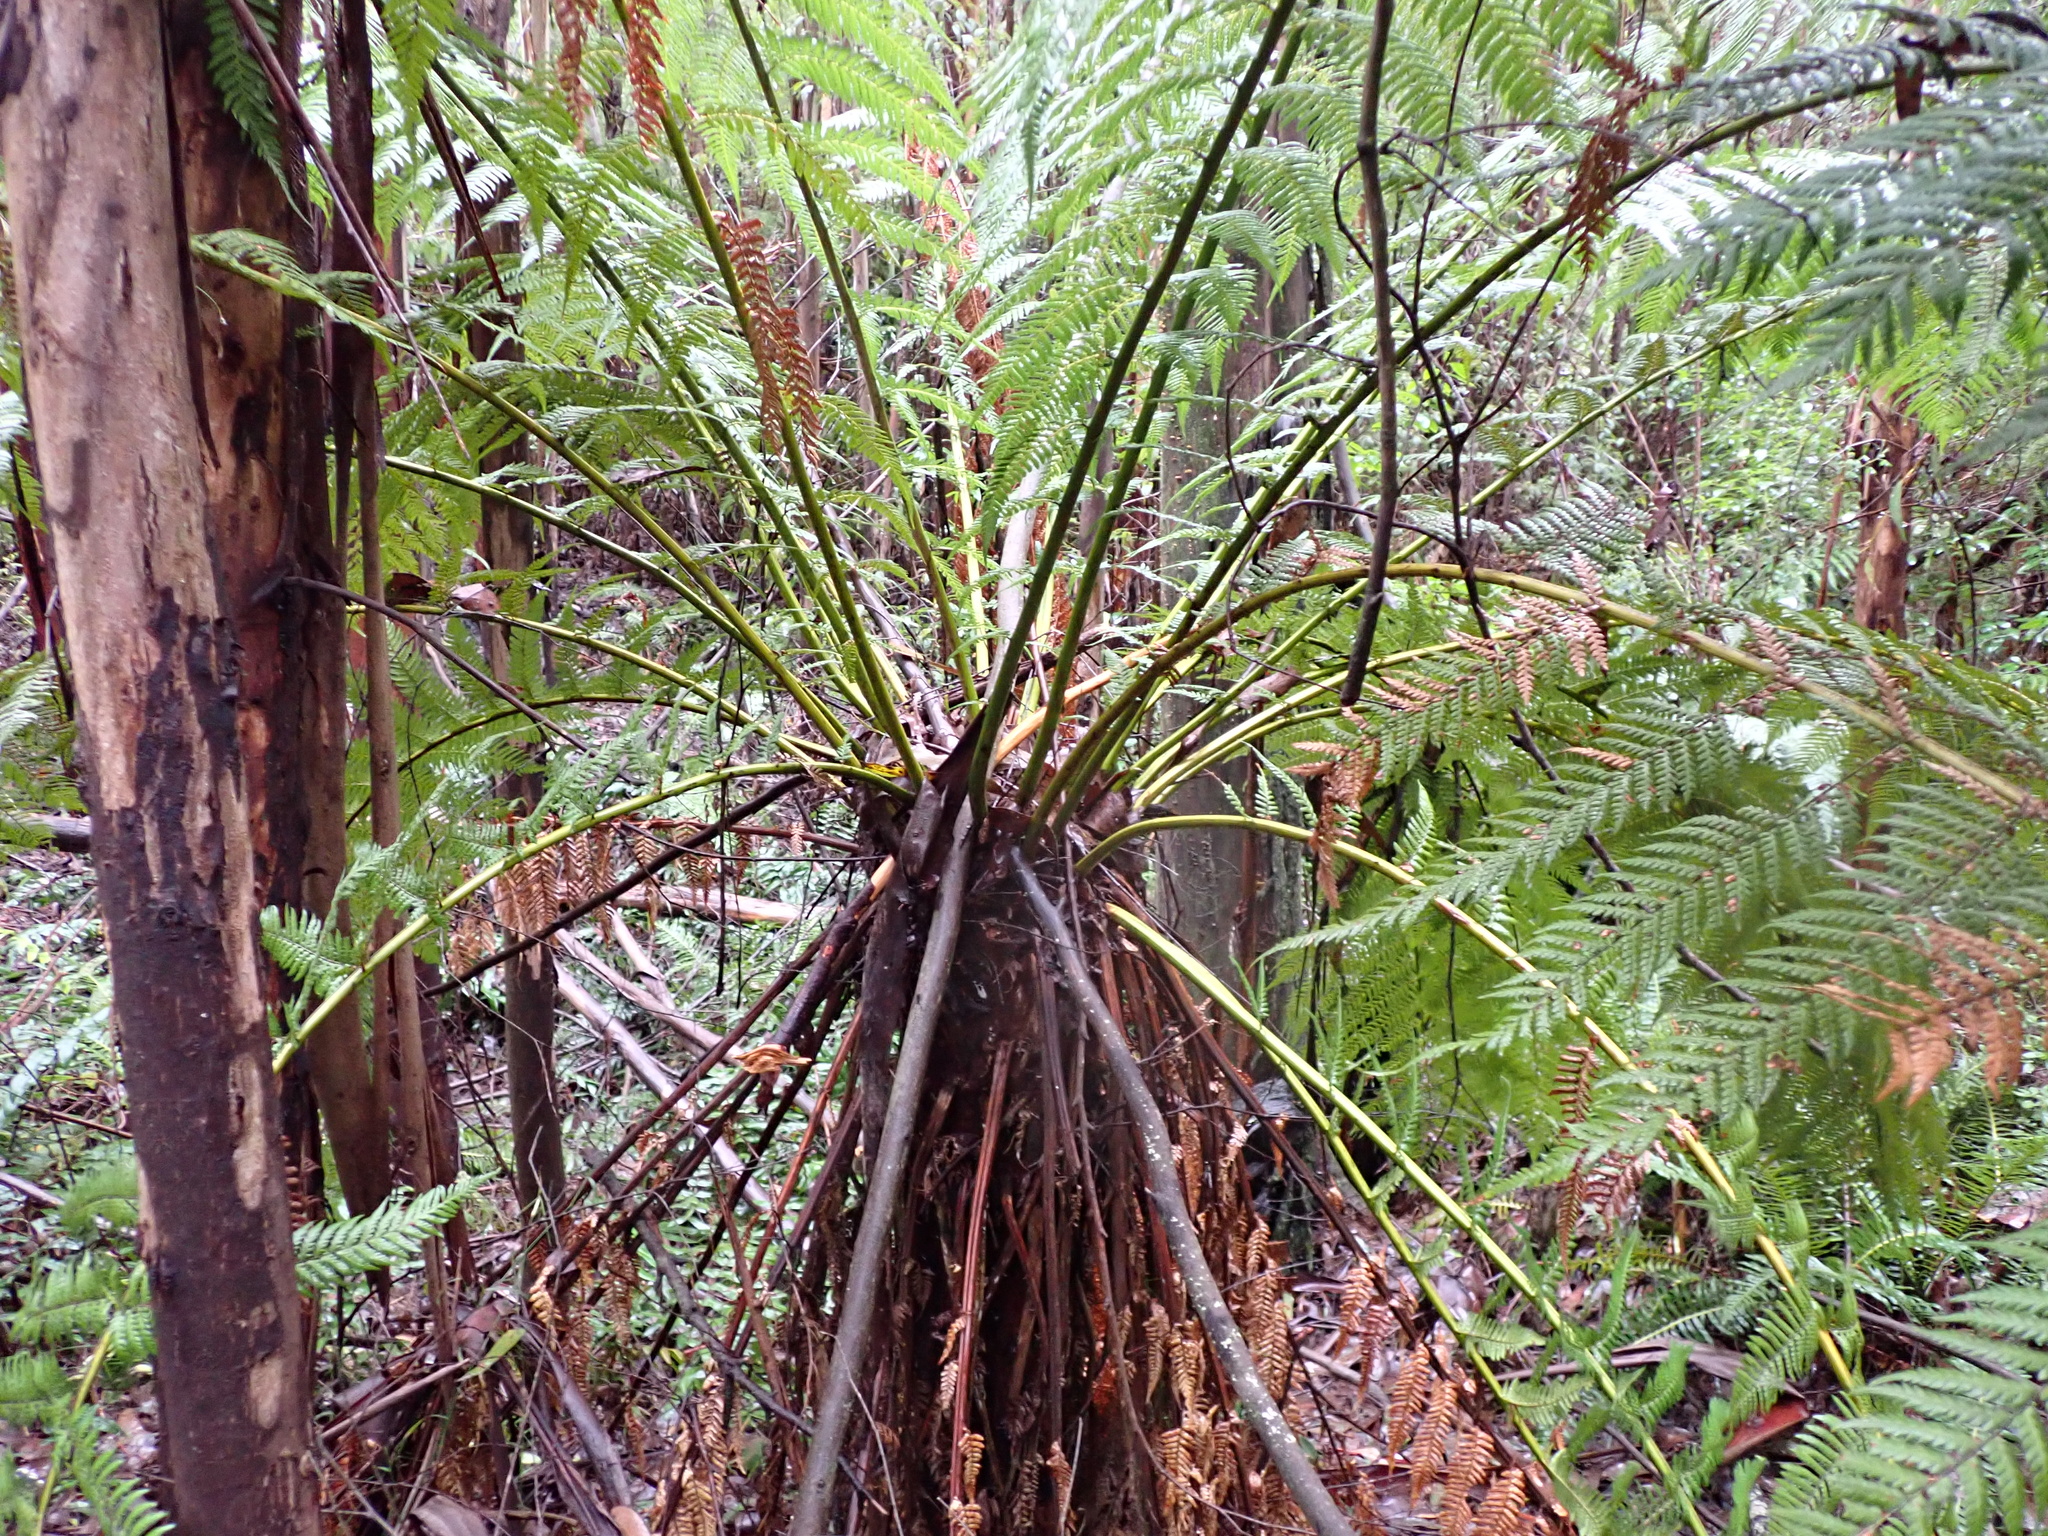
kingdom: Plantae
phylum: Tracheophyta
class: Polypodiopsida
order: Cyatheales
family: Dicksoniaceae
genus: Dicksonia
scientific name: Dicksonia antarctica
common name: Australian treefern
